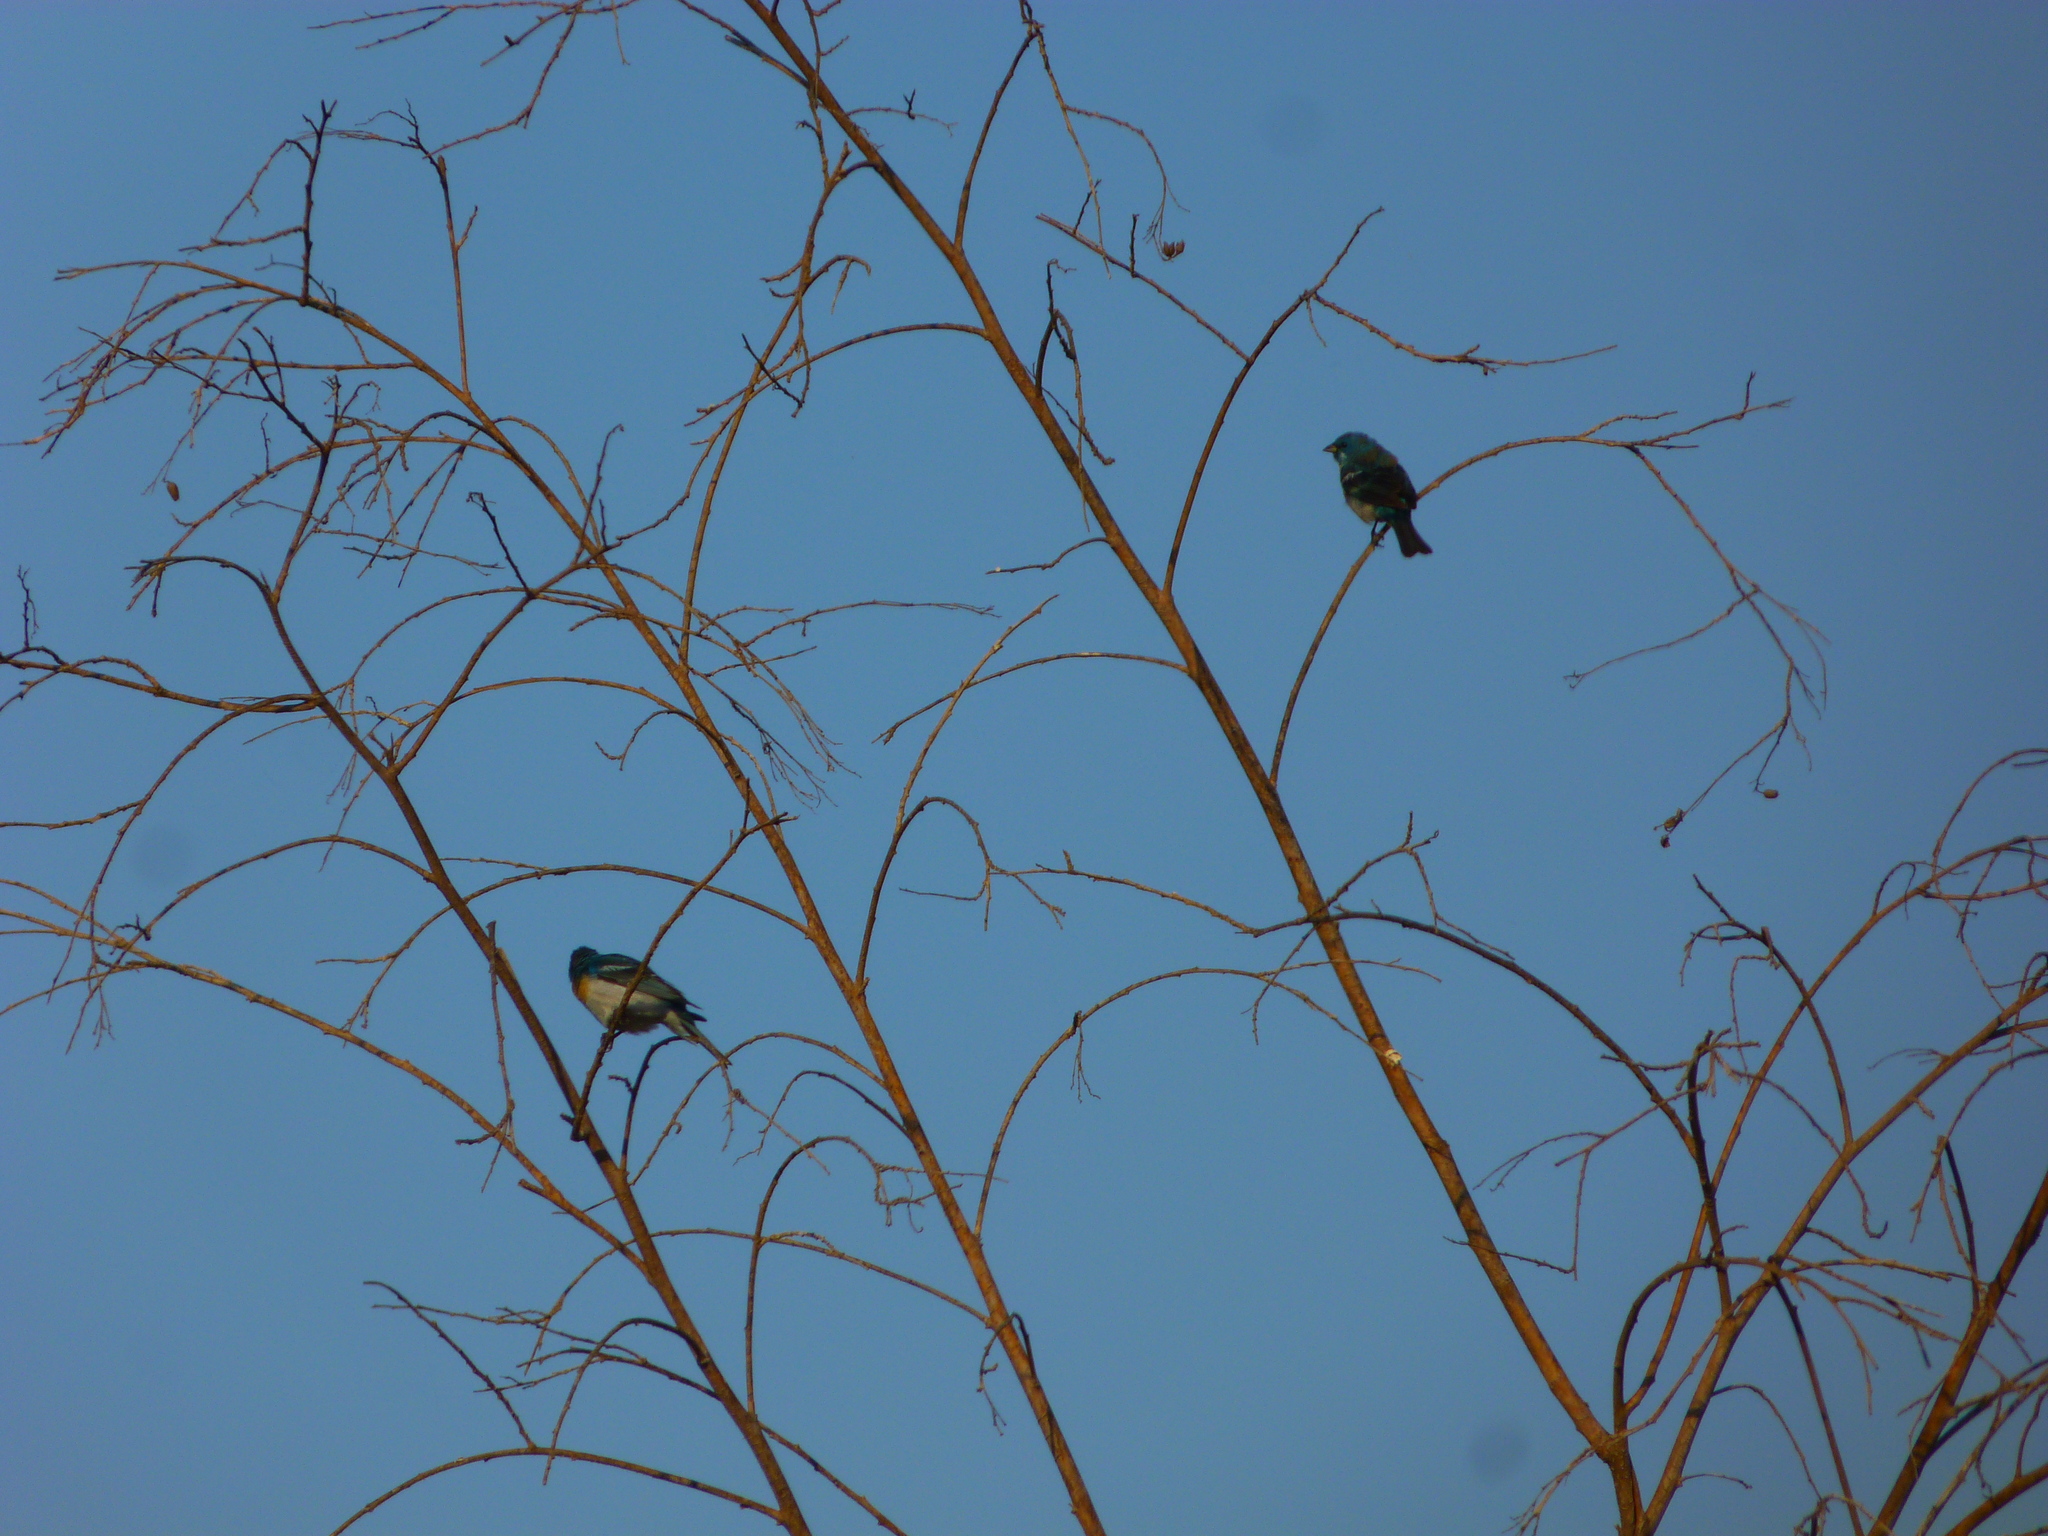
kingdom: Animalia
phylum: Chordata
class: Aves
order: Passeriformes
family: Cardinalidae
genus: Passerina
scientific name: Passerina amoena
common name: Lazuli bunting
